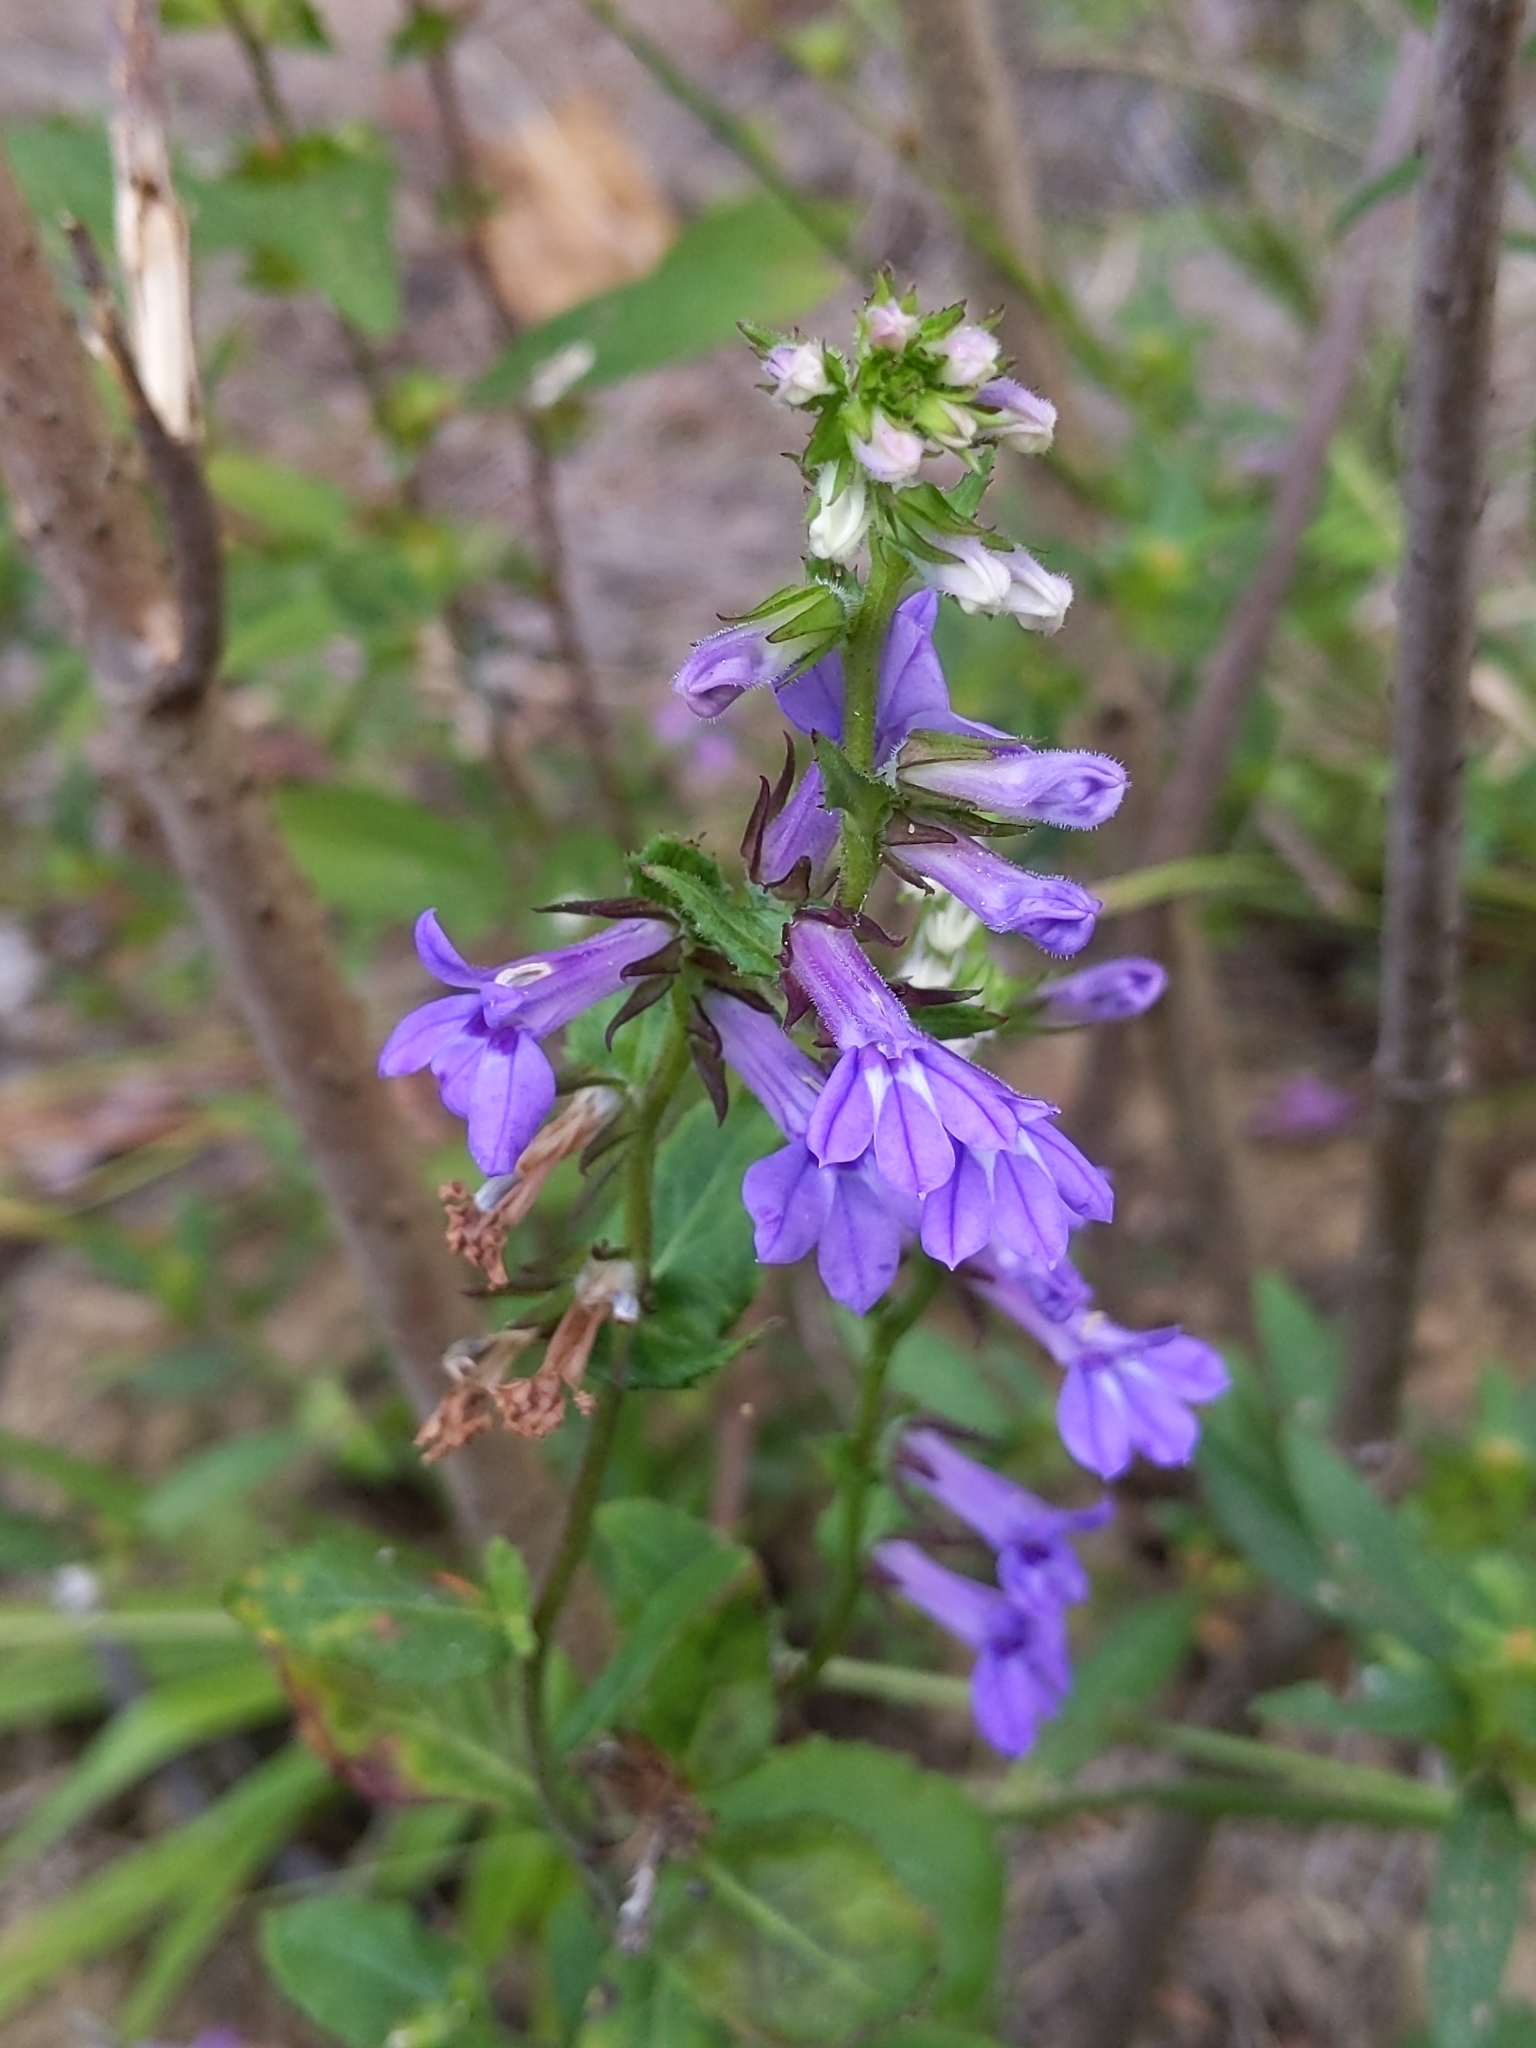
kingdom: Plantae
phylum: Tracheophyta
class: Magnoliopsida
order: Asterales
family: Campanulaceae
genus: Lobelia
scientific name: Lobelia puberula
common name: Purple dewdrop
